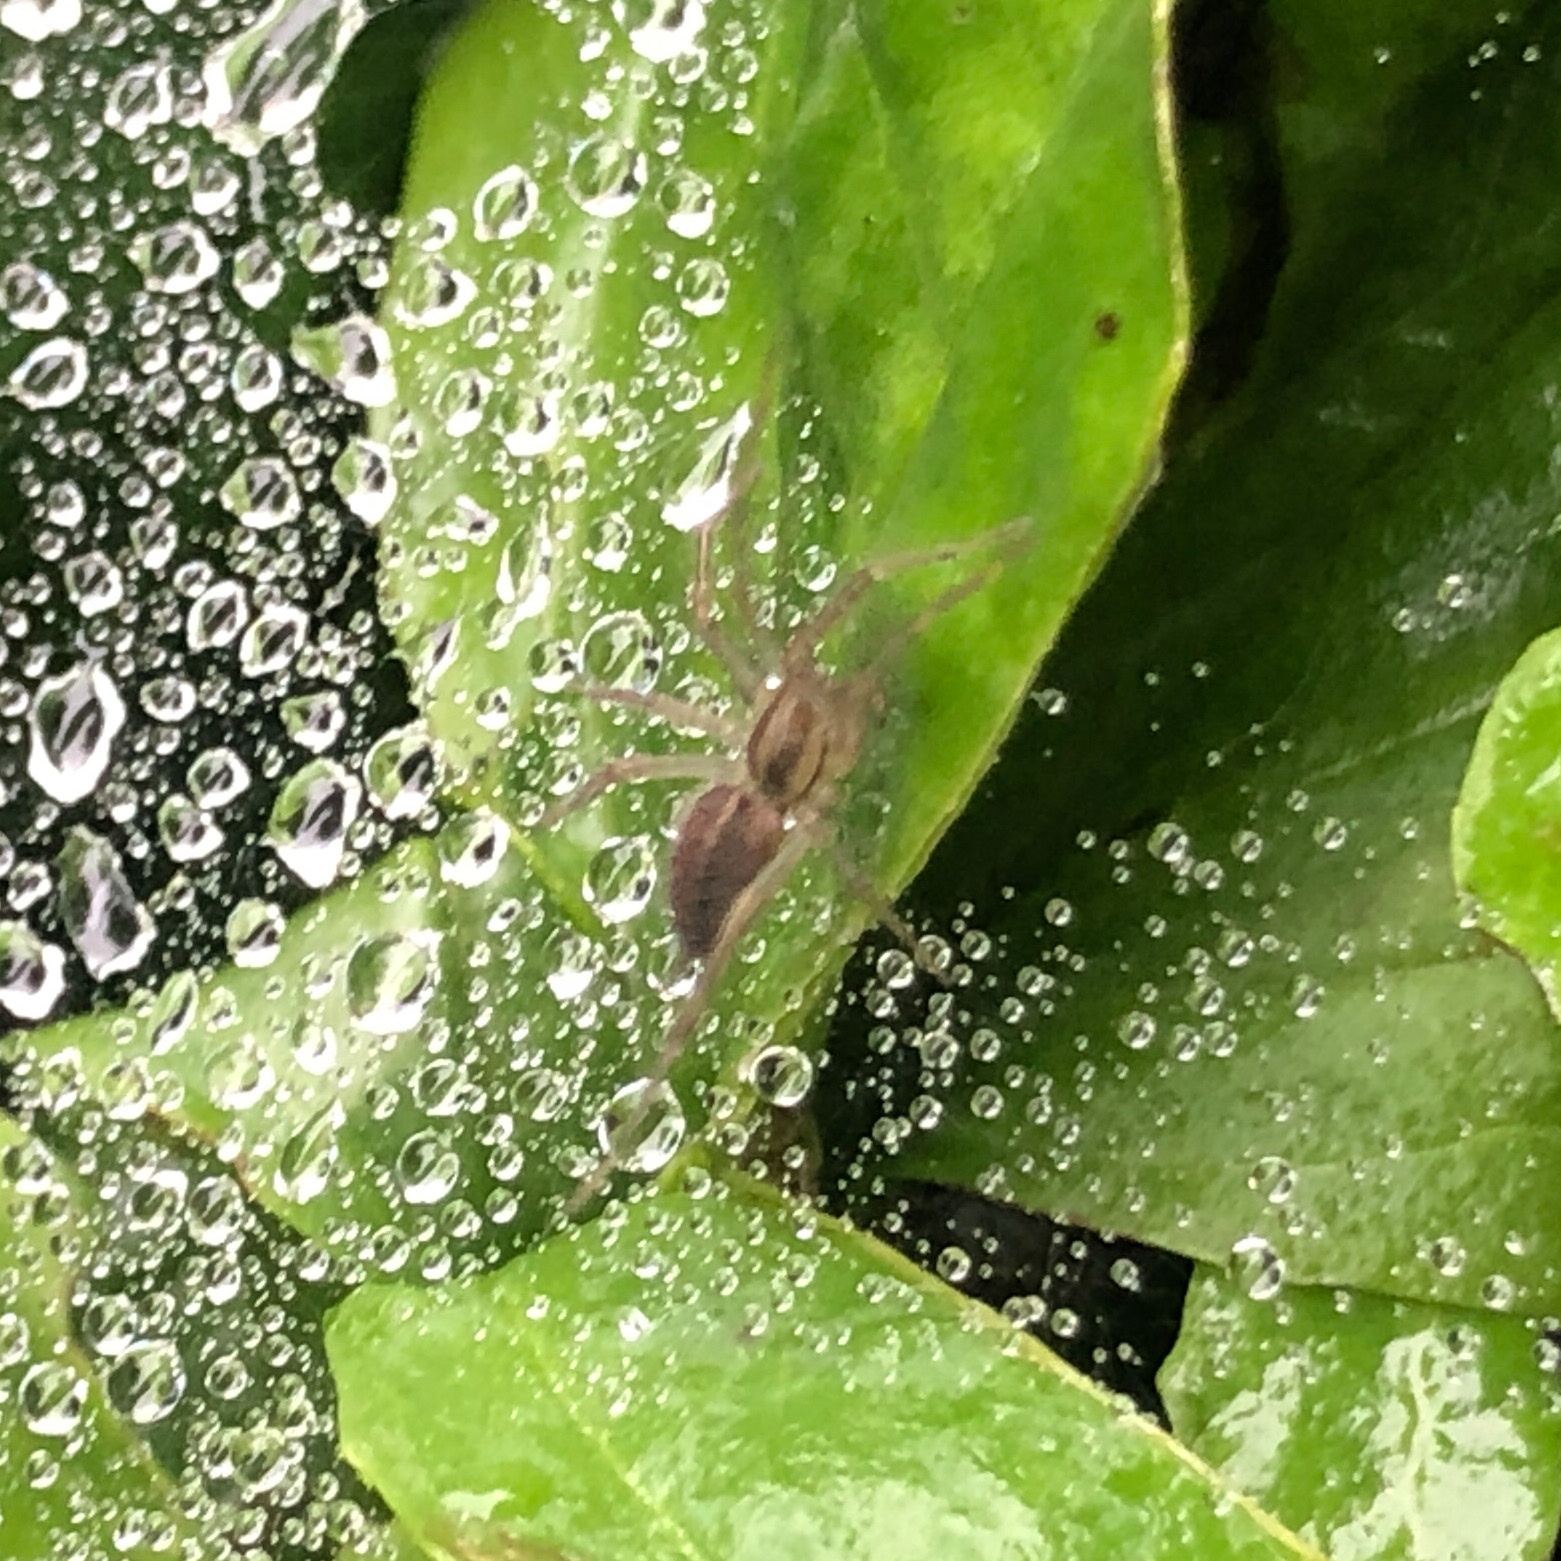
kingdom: Animalia
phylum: Arthropoda
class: Arachnida
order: Araneae
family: Agelenidae
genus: Agelenopsis
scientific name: Agelenopsis
